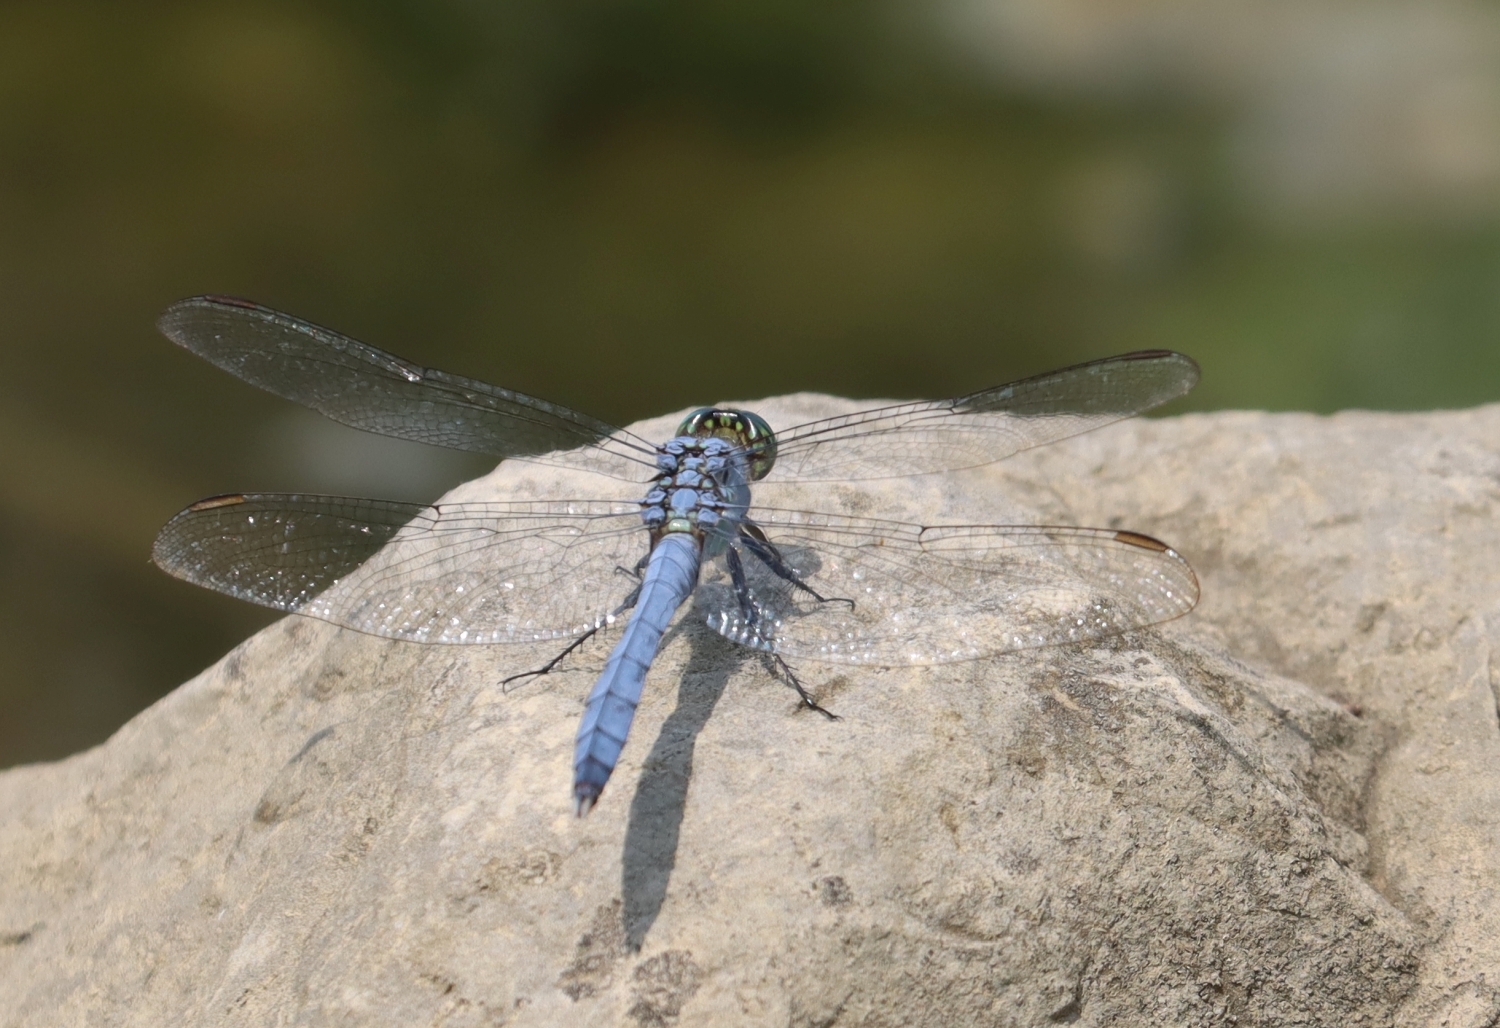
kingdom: Animalia
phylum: Arthropoda
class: Insecta
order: Odonata
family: Libellulidae
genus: Erythemis
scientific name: Erythemis simplicicollis
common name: Eastern pondhawk
